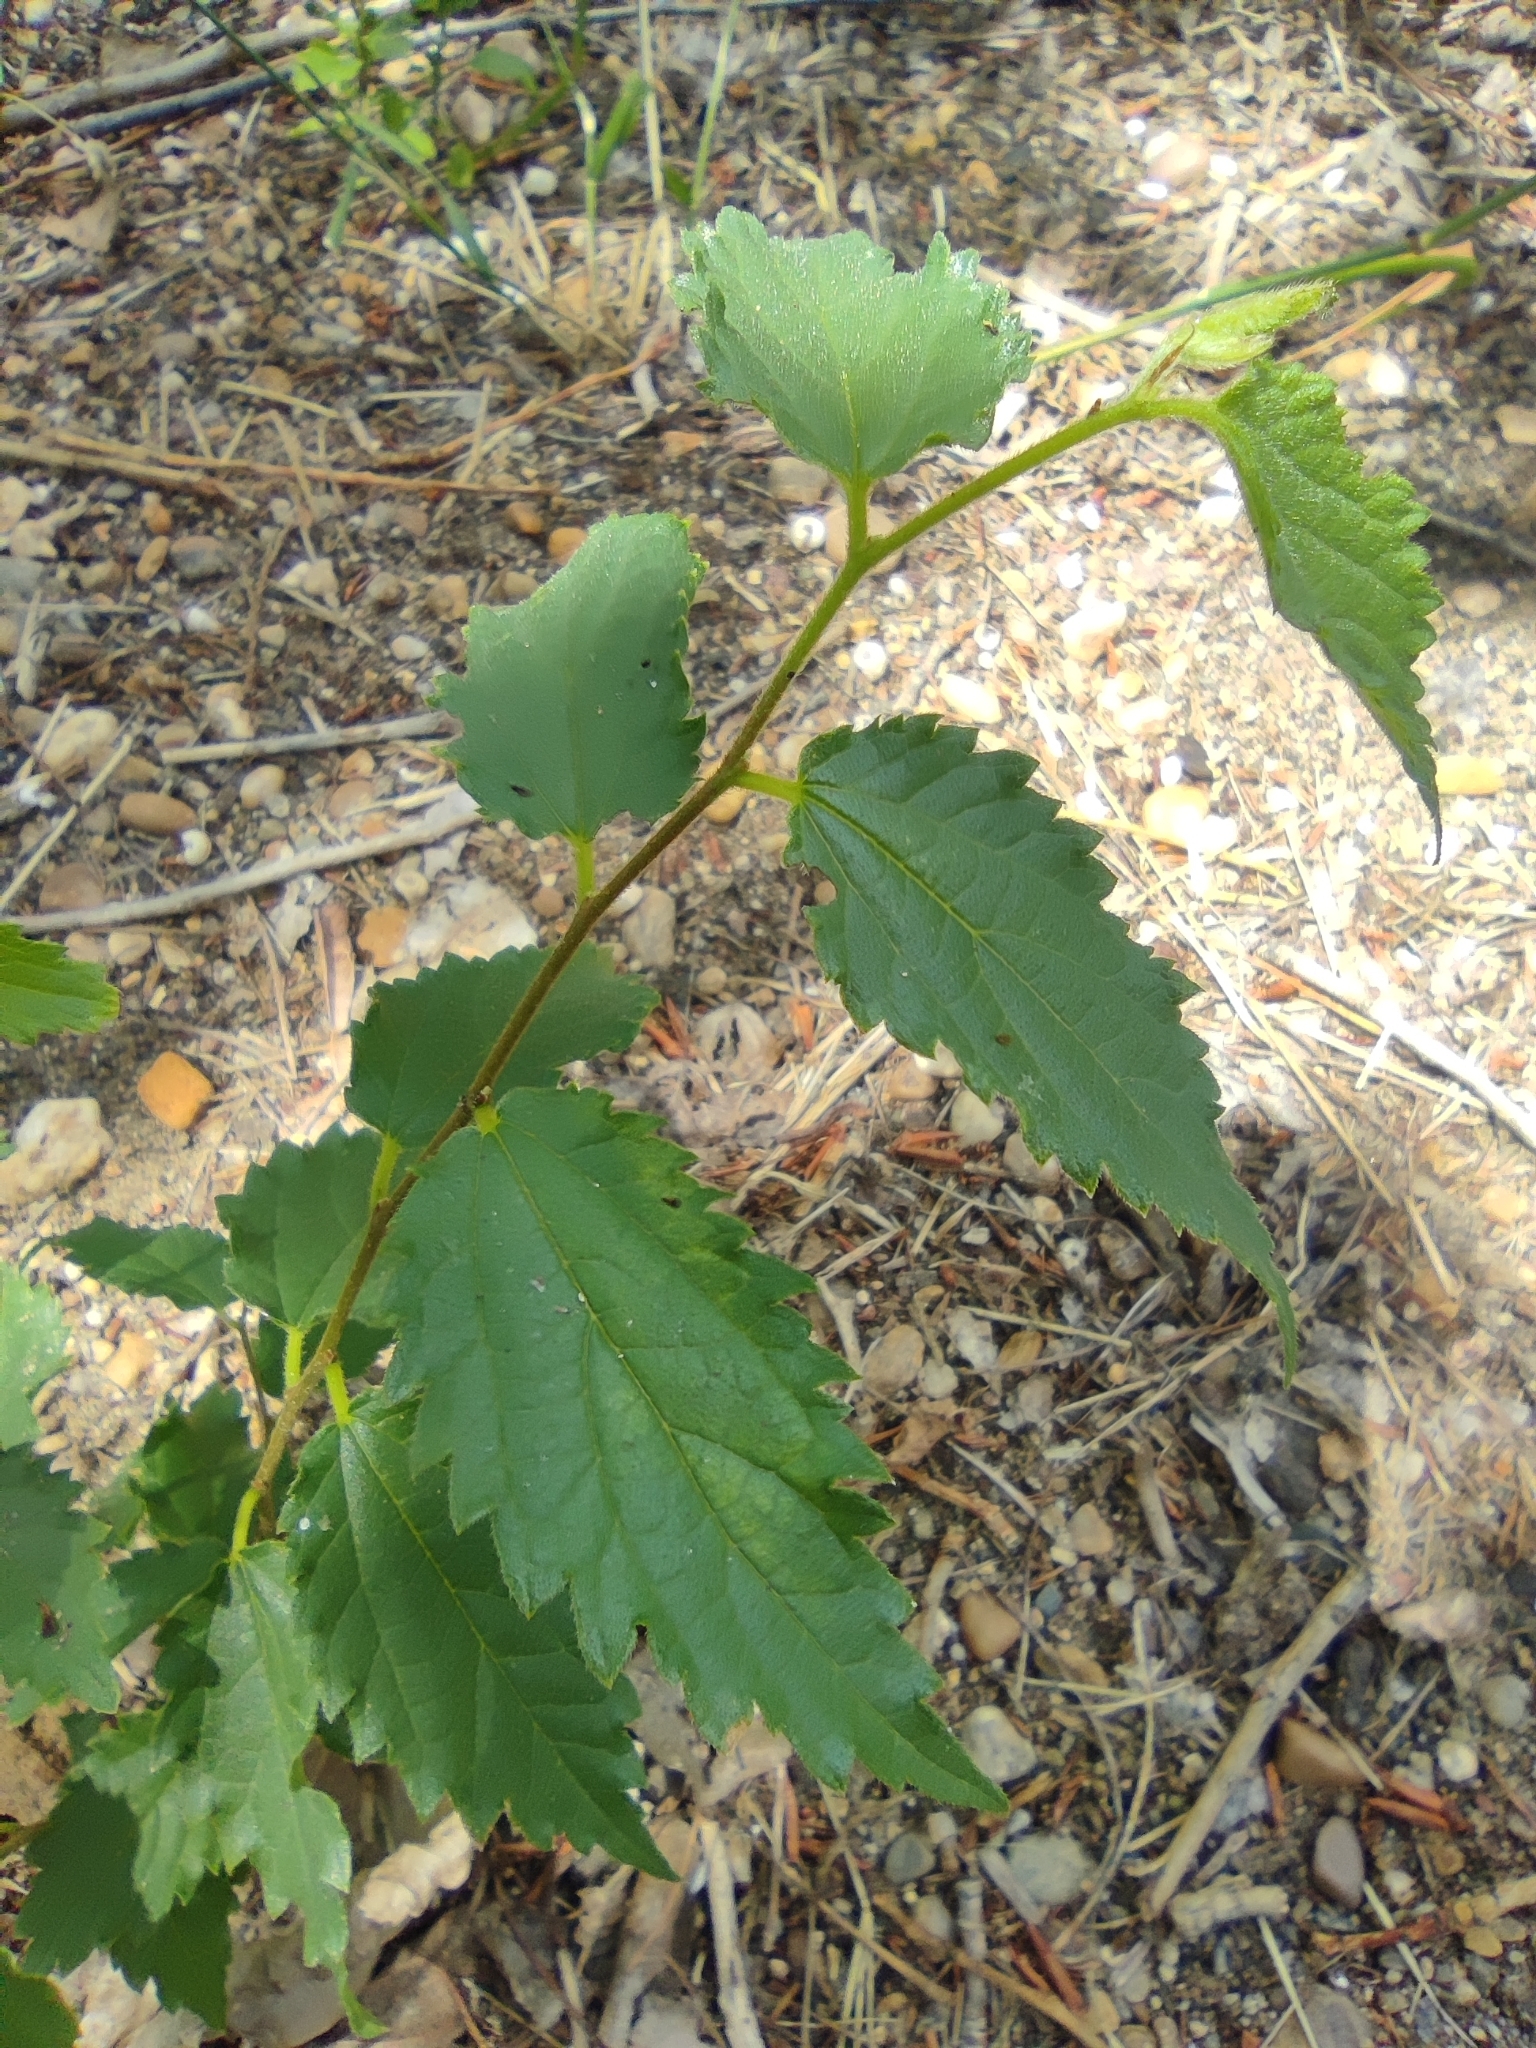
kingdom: Plantae
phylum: Tracheophyta
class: Magnoliopsida
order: Rosales
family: Cannabaceae
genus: Celtis
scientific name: Celtis australis
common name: European hackberry
